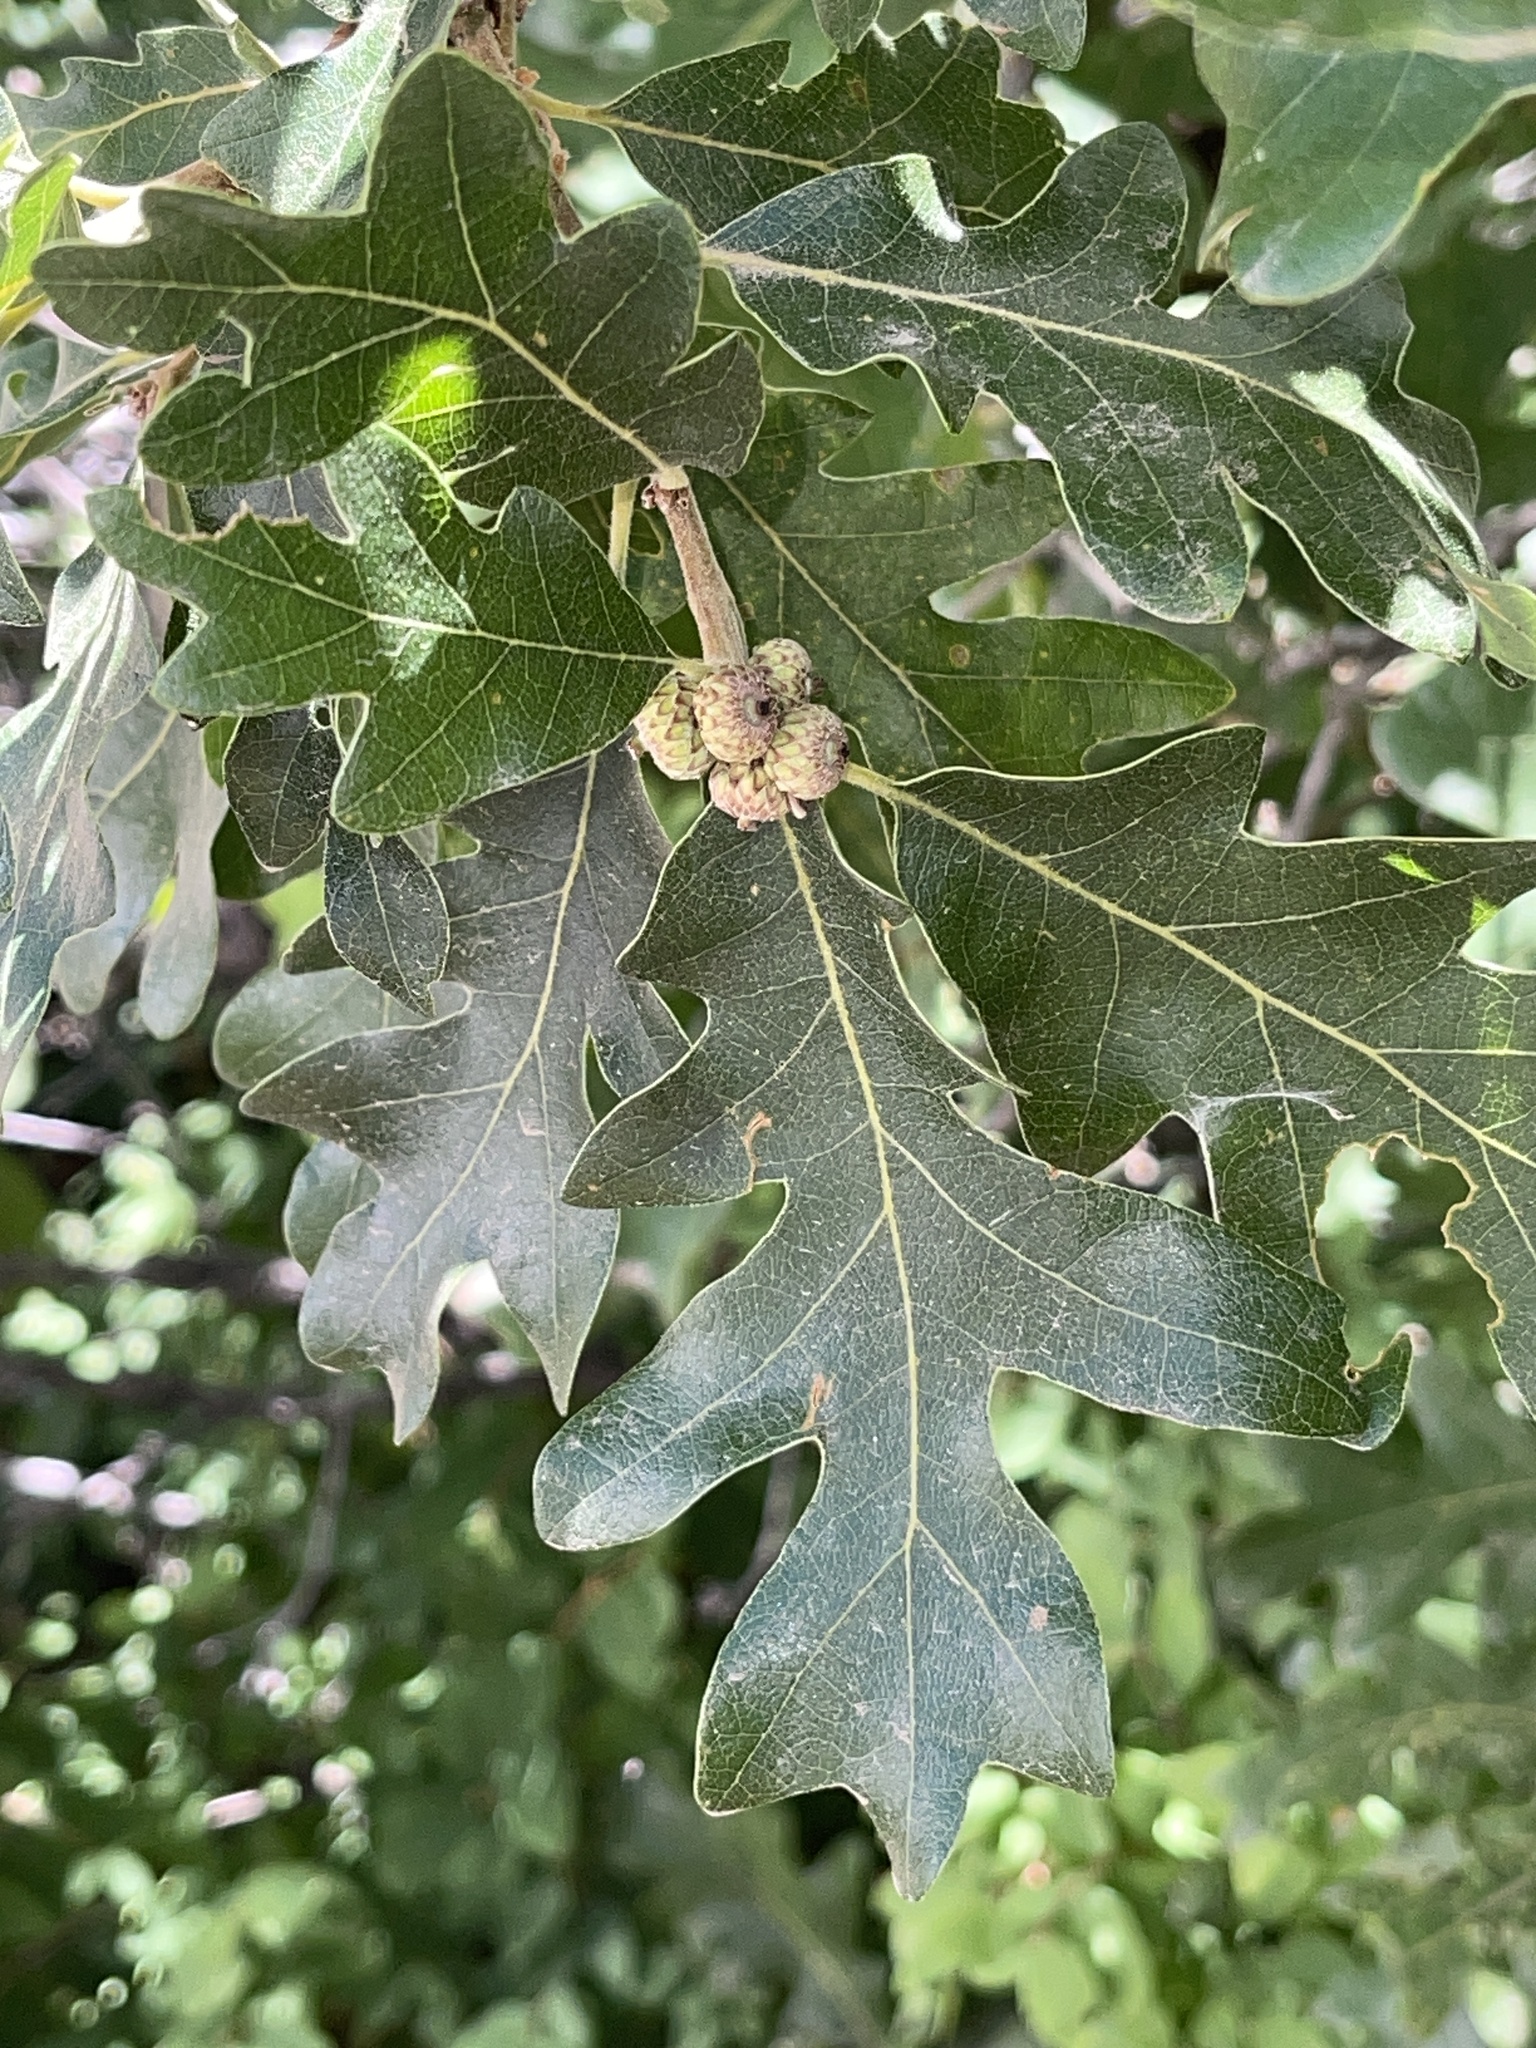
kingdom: Plantae
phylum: Tracheophyta
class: Magnoliopsida
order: Fagales
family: Fagaceae
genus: Quercus
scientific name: Quercus gambelii
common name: Gambel oak
